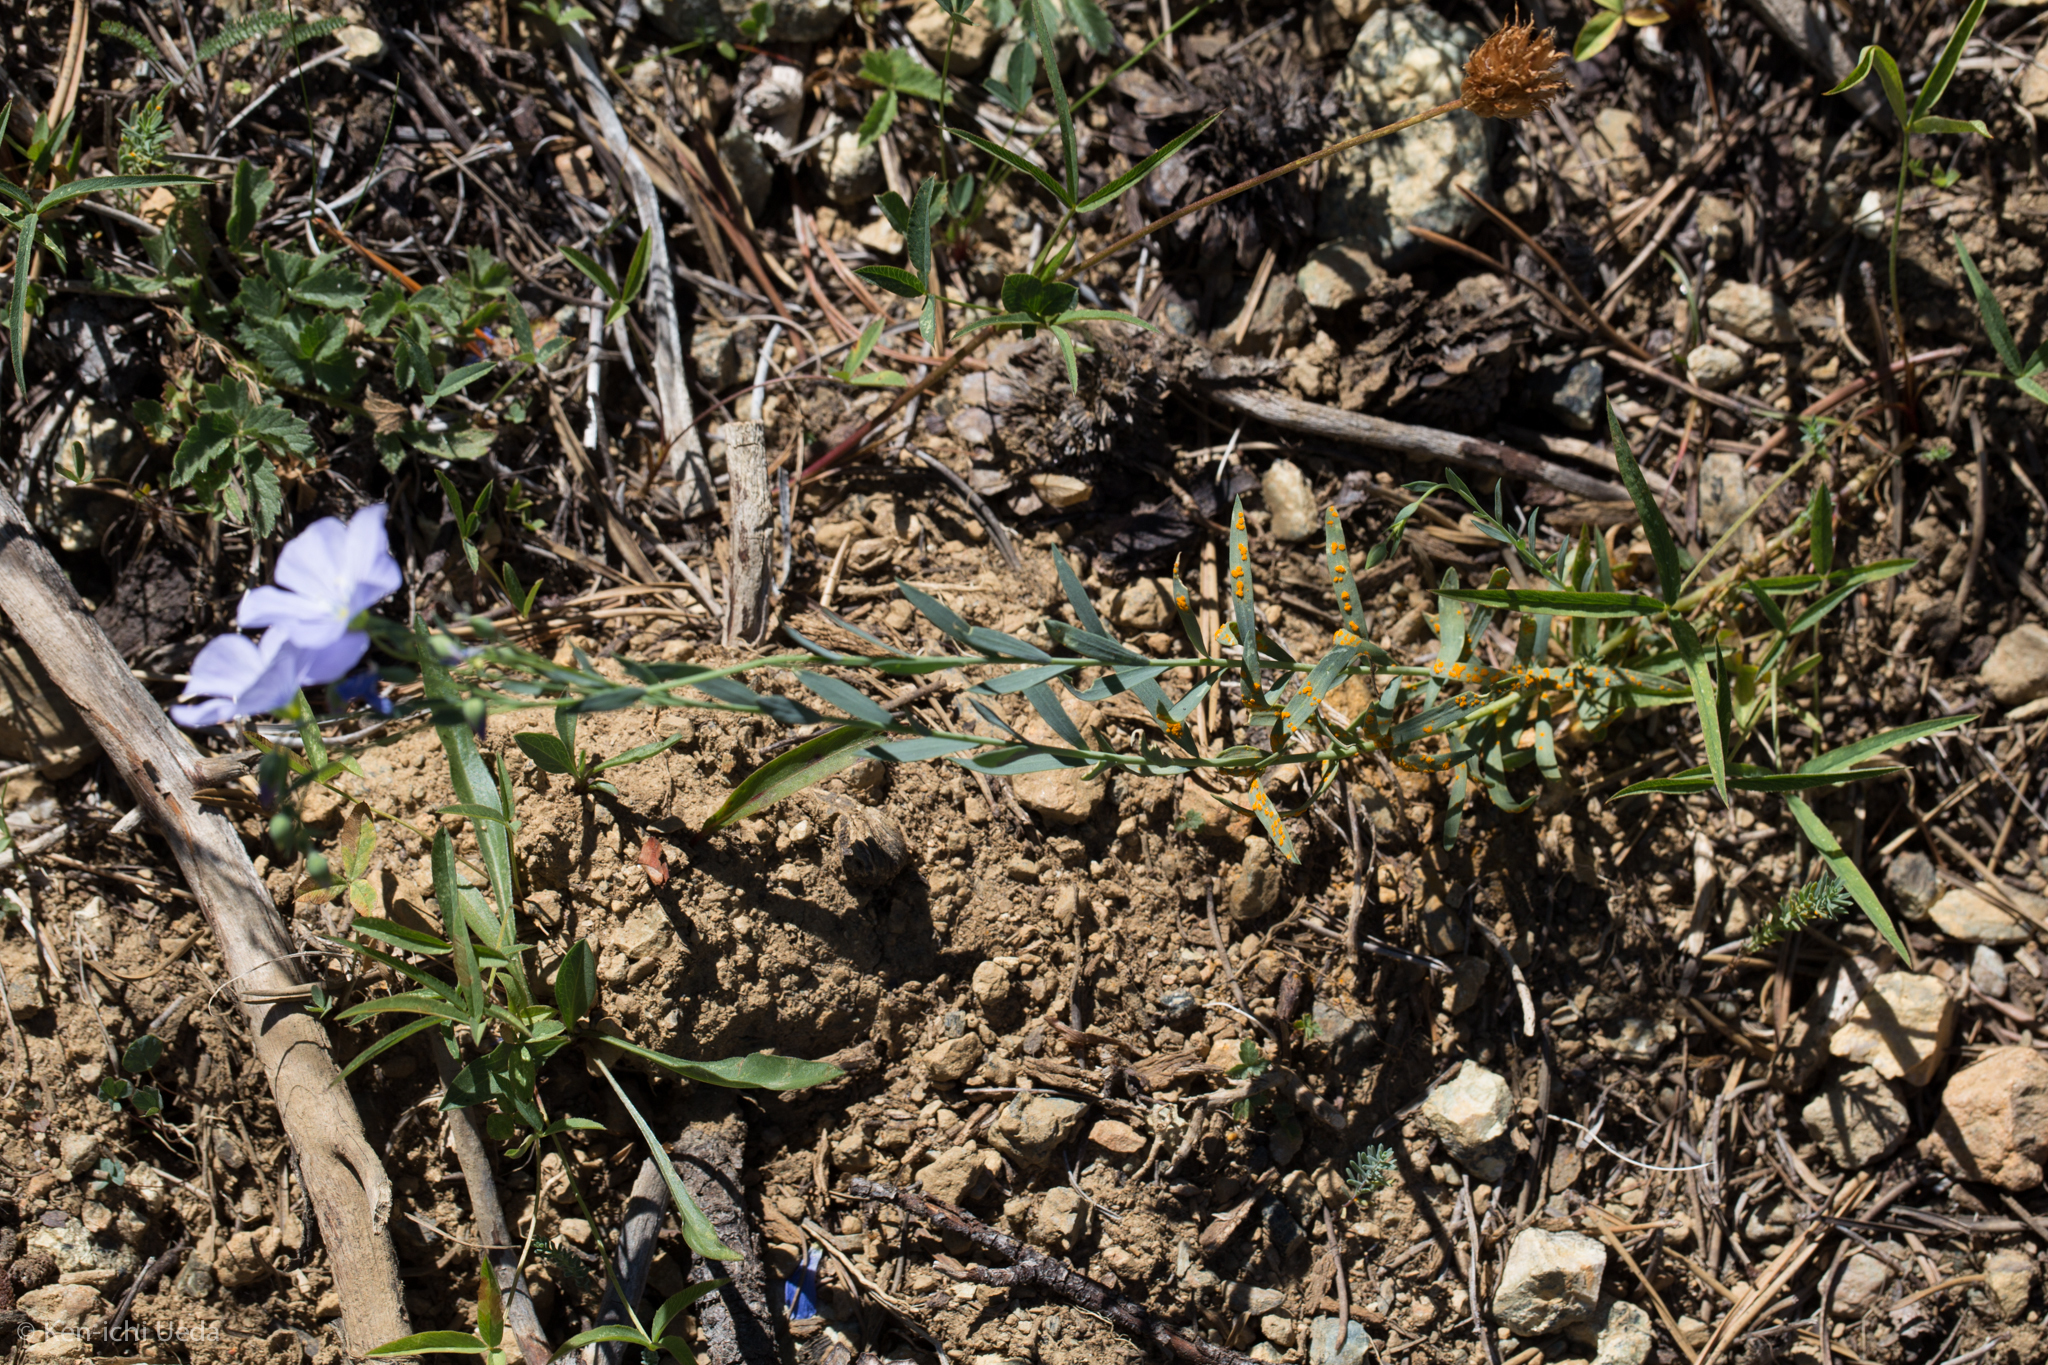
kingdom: Plantae
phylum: Tracheophyta
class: Magnoliopsida
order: Malpighiales
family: Linaceae
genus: Linum
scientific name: Linum lewisii
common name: Prairie flax
